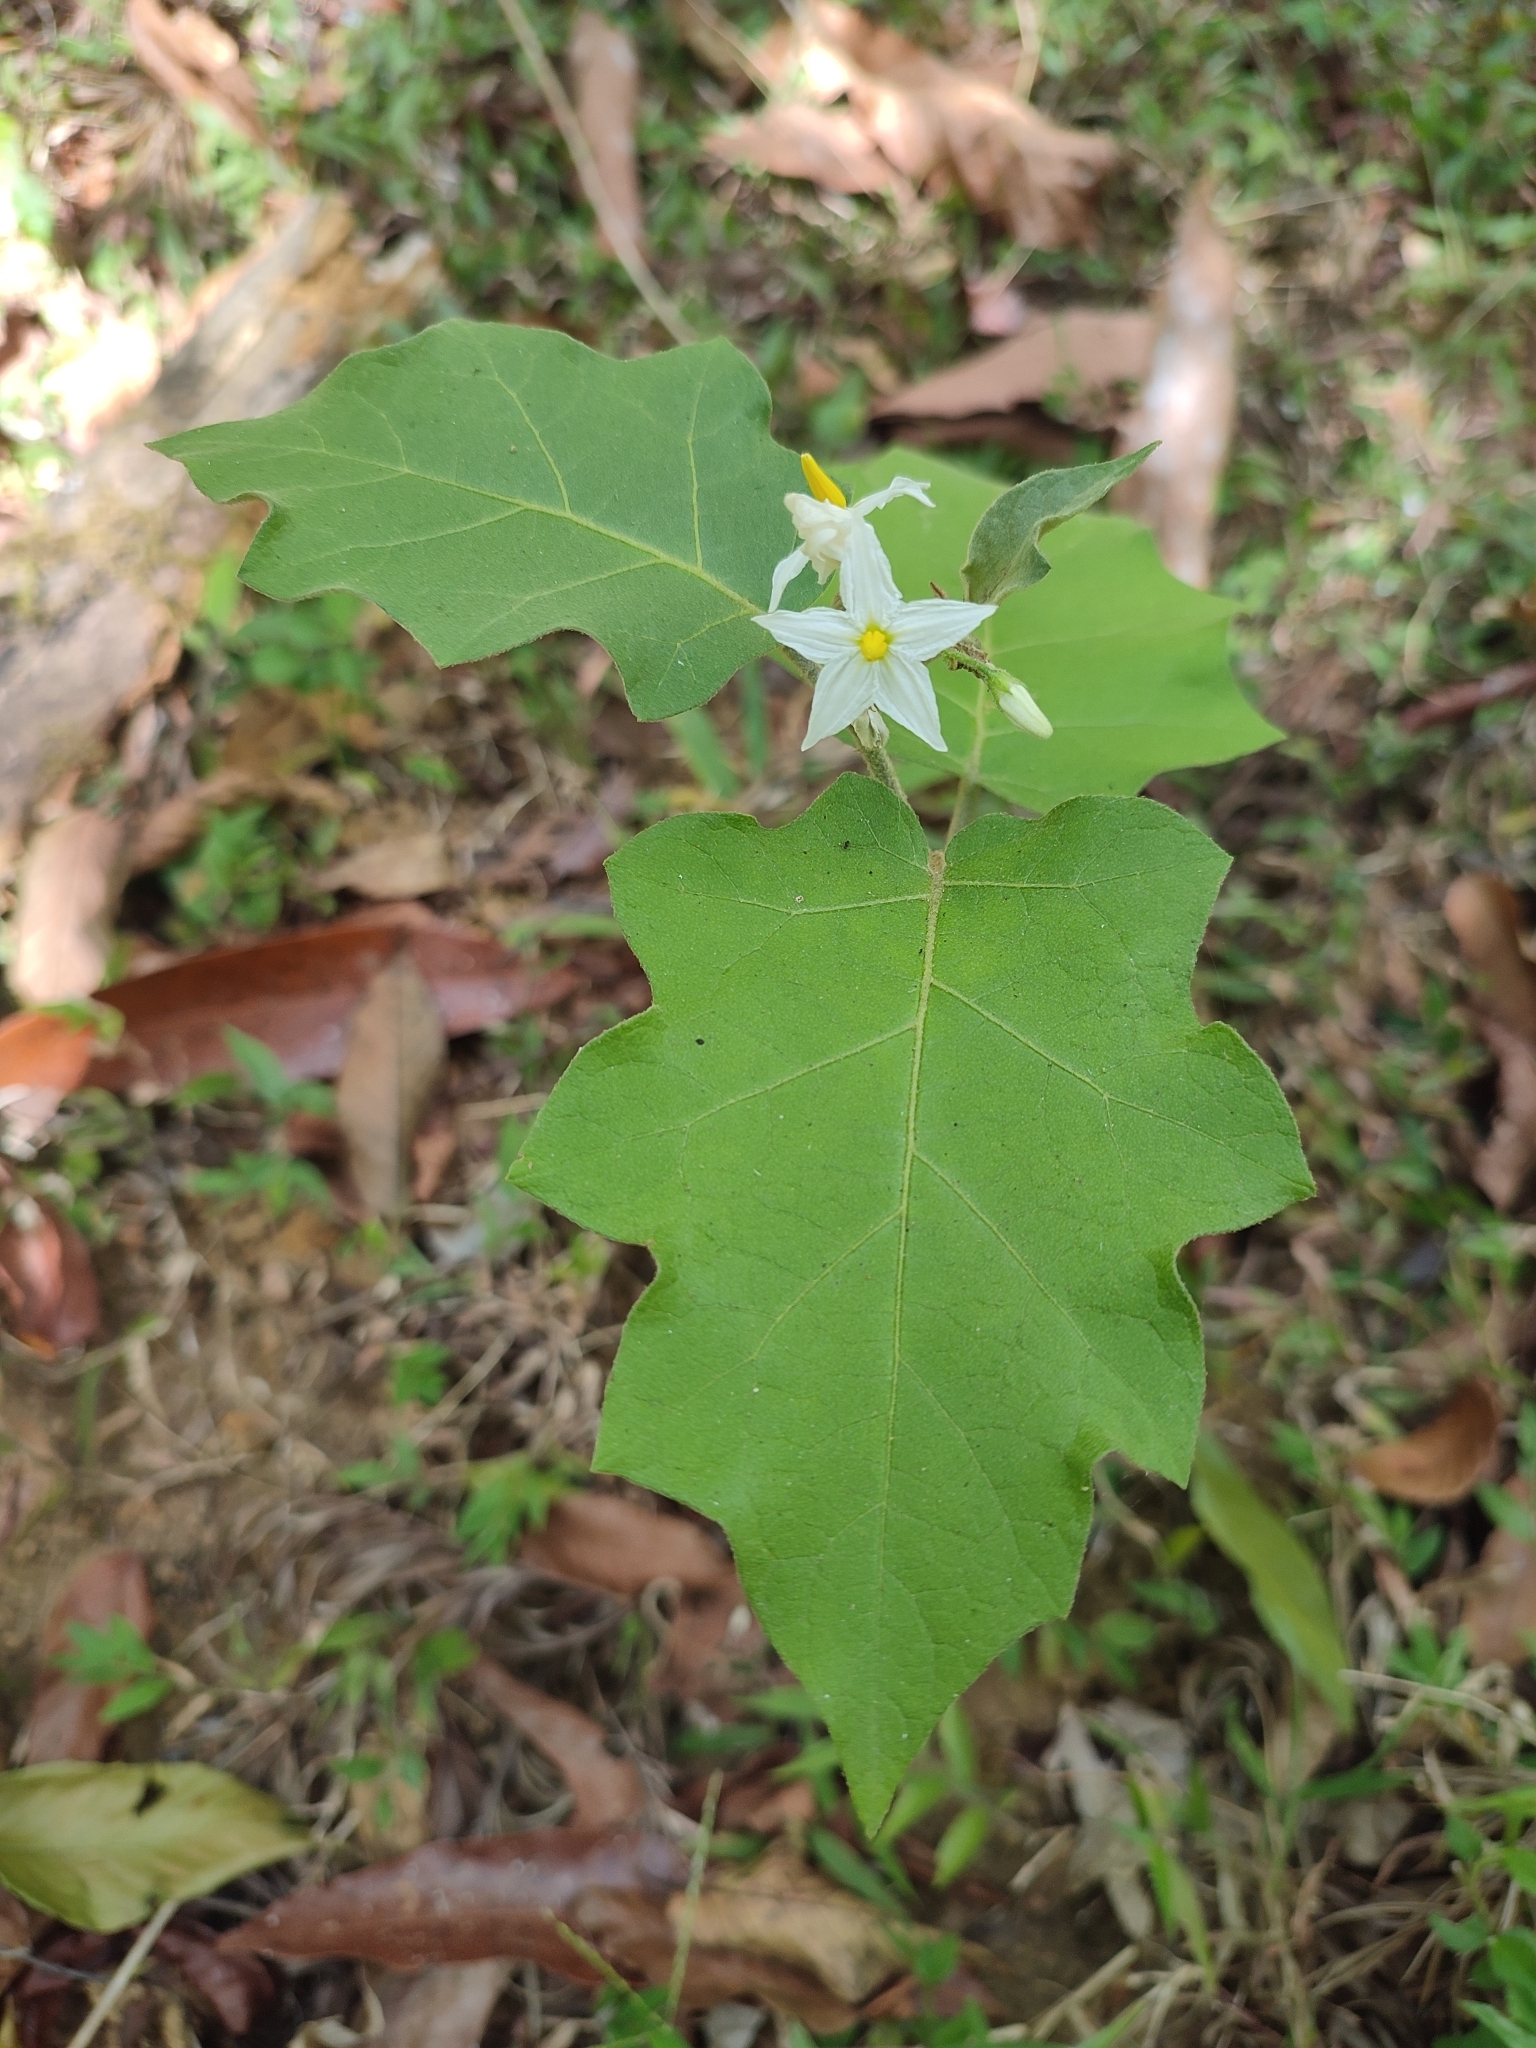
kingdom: Plantae
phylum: Tracheophyta
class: Magnoliopsida
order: Solanales
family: Solanaceae
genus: Solanum
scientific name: Solanum torvum
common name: Turkey berry
